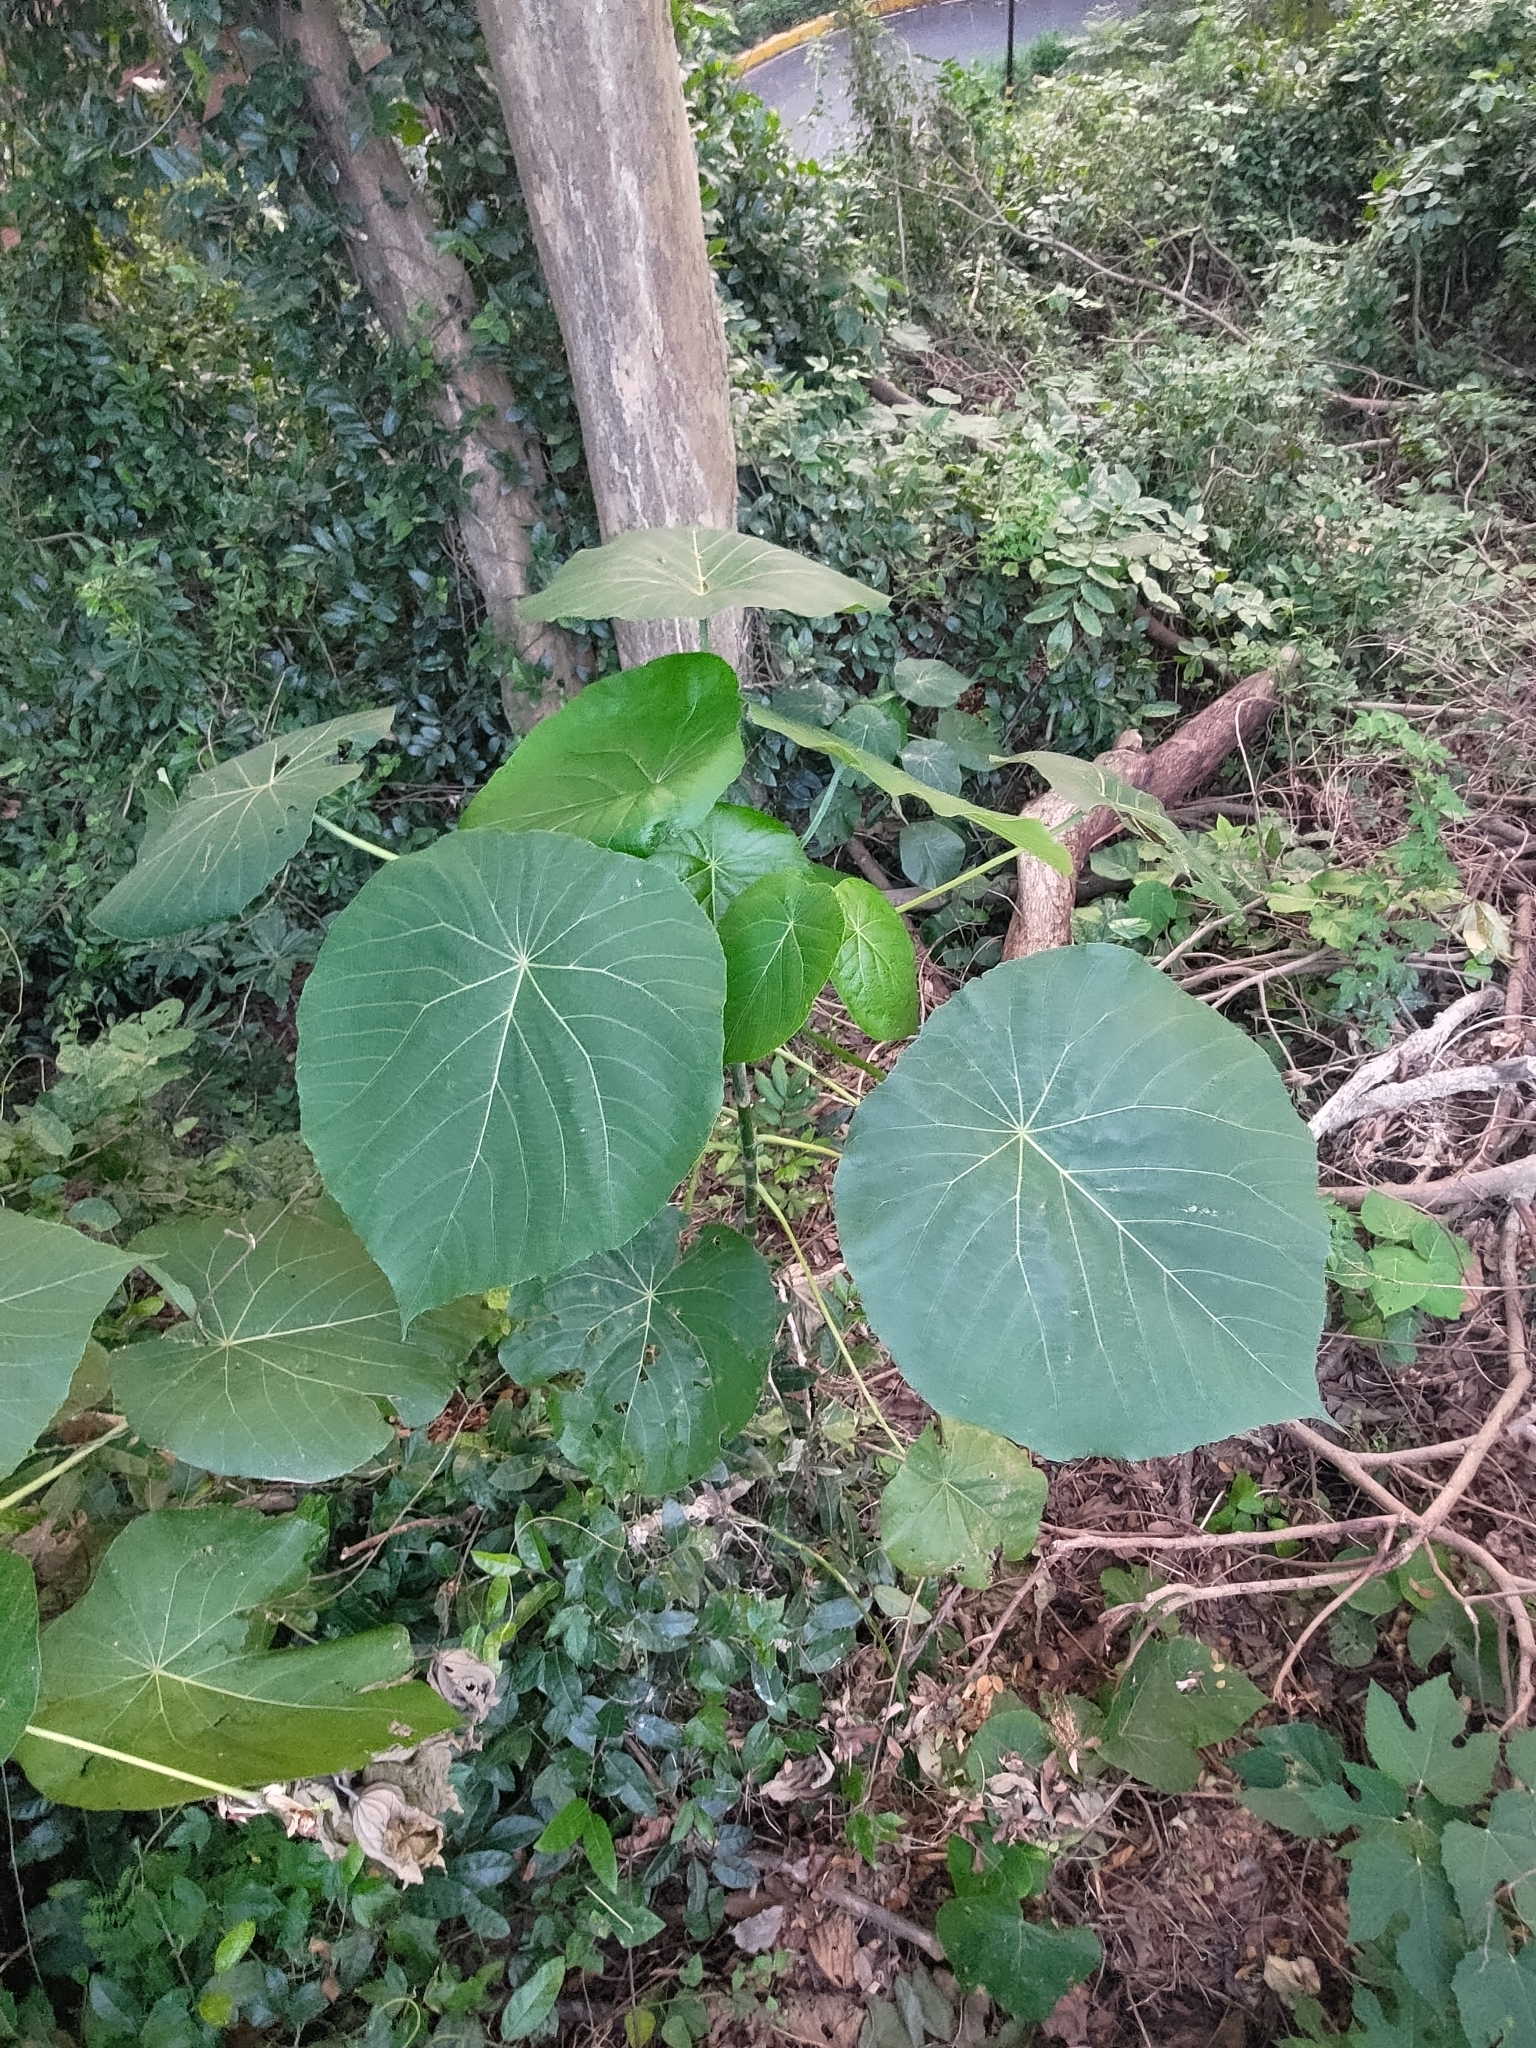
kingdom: Plantae
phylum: Tracheophyta
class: Magnoliopsida
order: Malpighiales
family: Euphorbiaceae
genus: Macaranga
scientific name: Macaranga tanarius
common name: Parasol leaf tree
